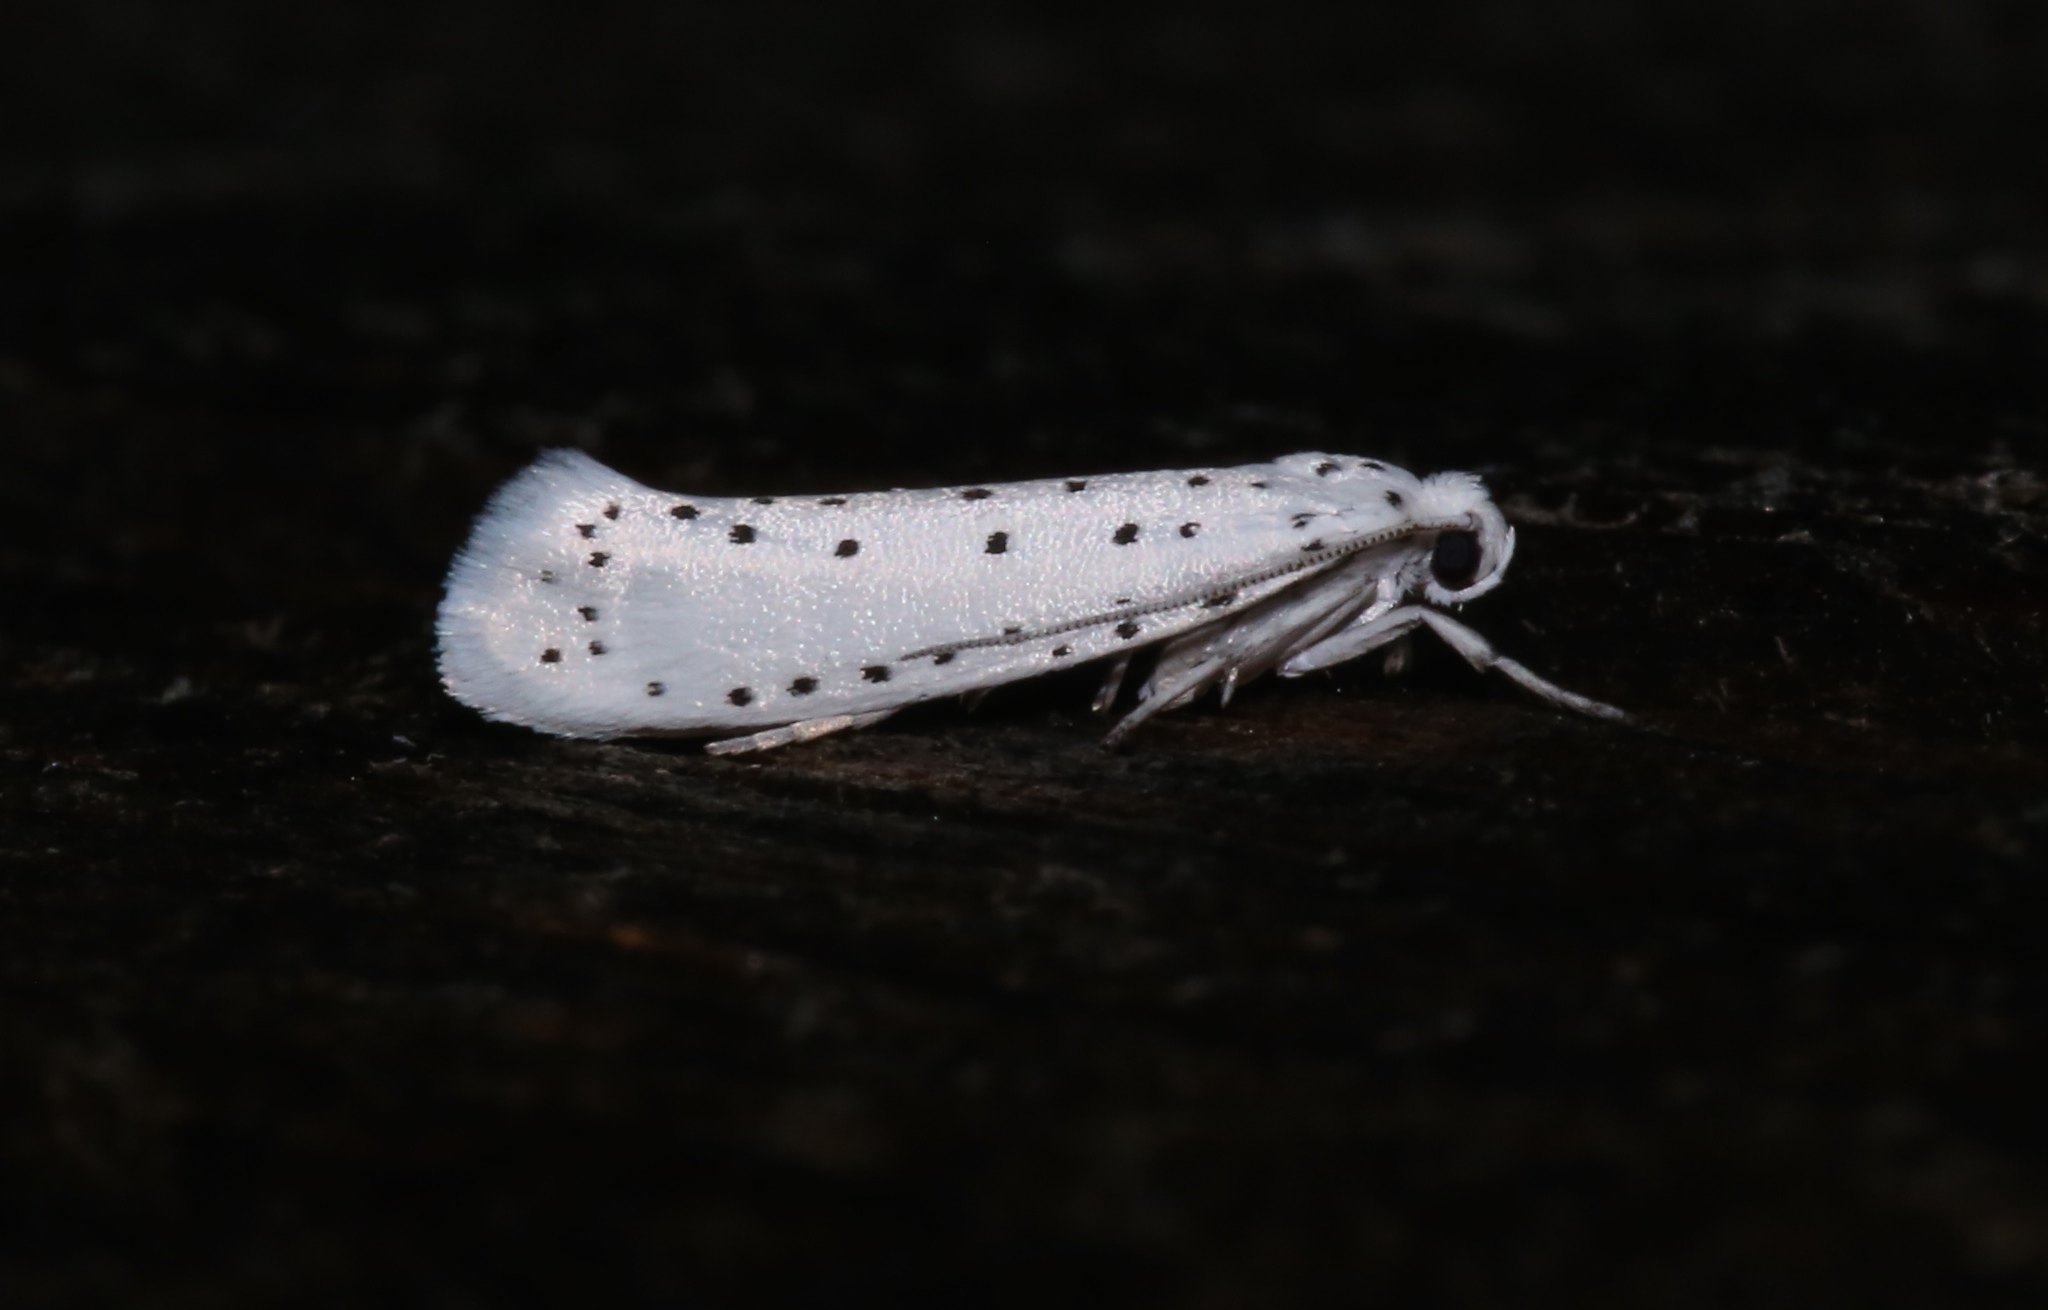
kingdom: Animalia
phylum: Arthropoda
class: Insecta
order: Lepidoptera
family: Yponomeutidae
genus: Yponomeuta
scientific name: Yponomeuta cagnagellus
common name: Spindle ermine
